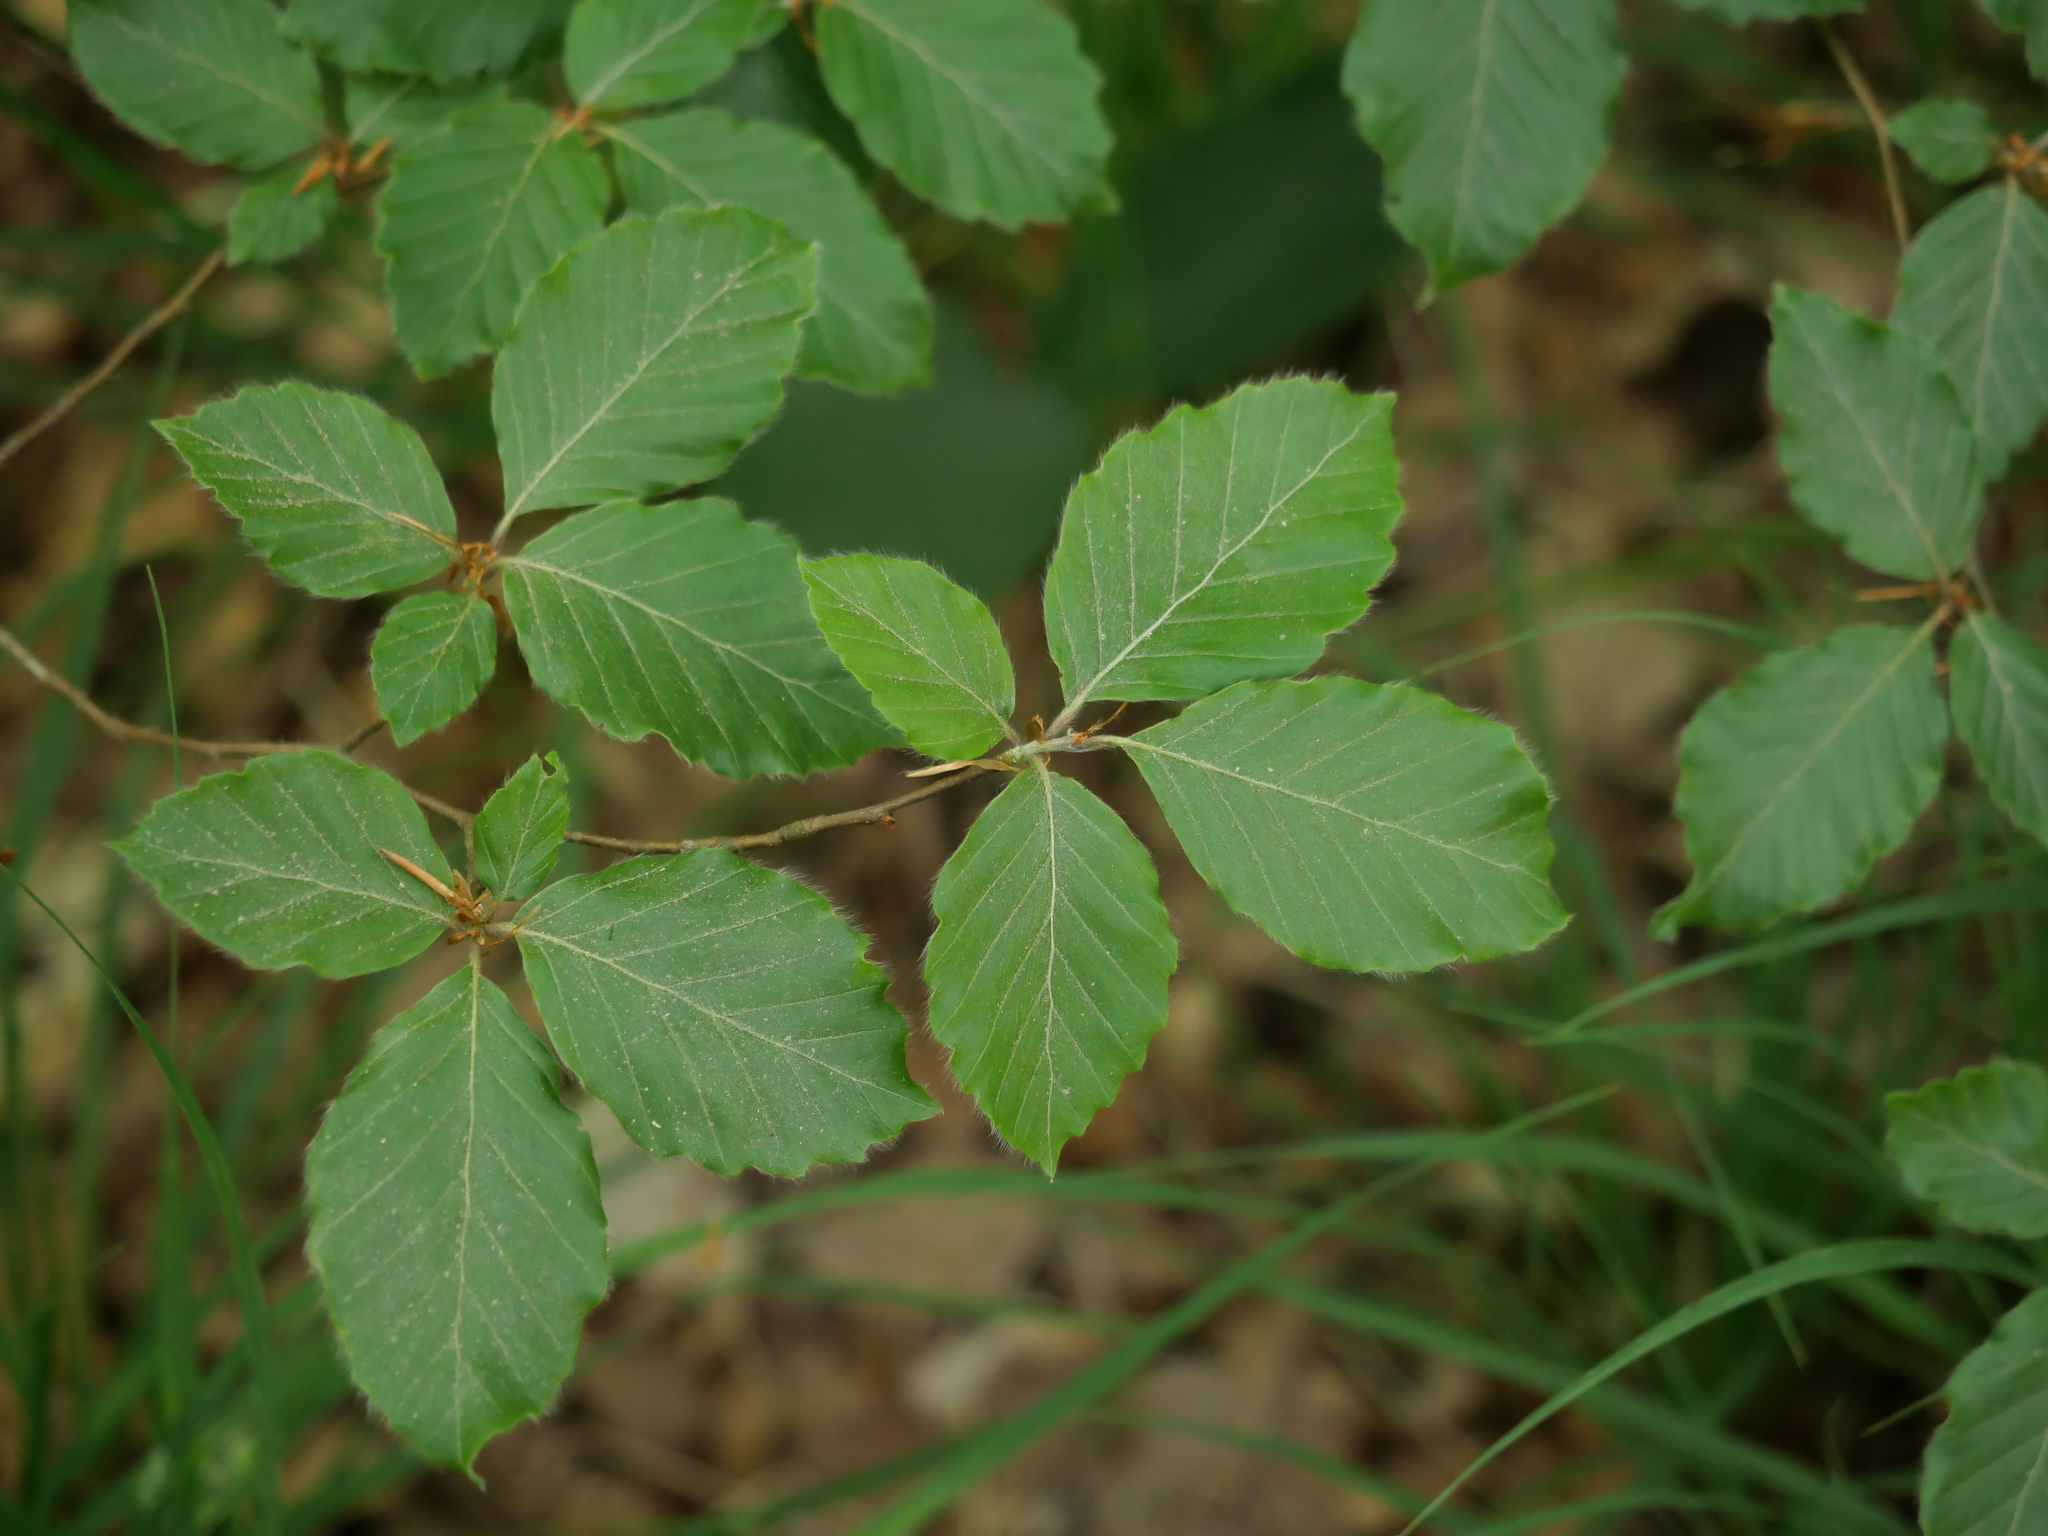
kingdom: Plantae
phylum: Tracheophyta
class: Magnoliopsida
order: Fagales
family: Fagaceae
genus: Fagus
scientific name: Fagus sylvatica
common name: Beech
